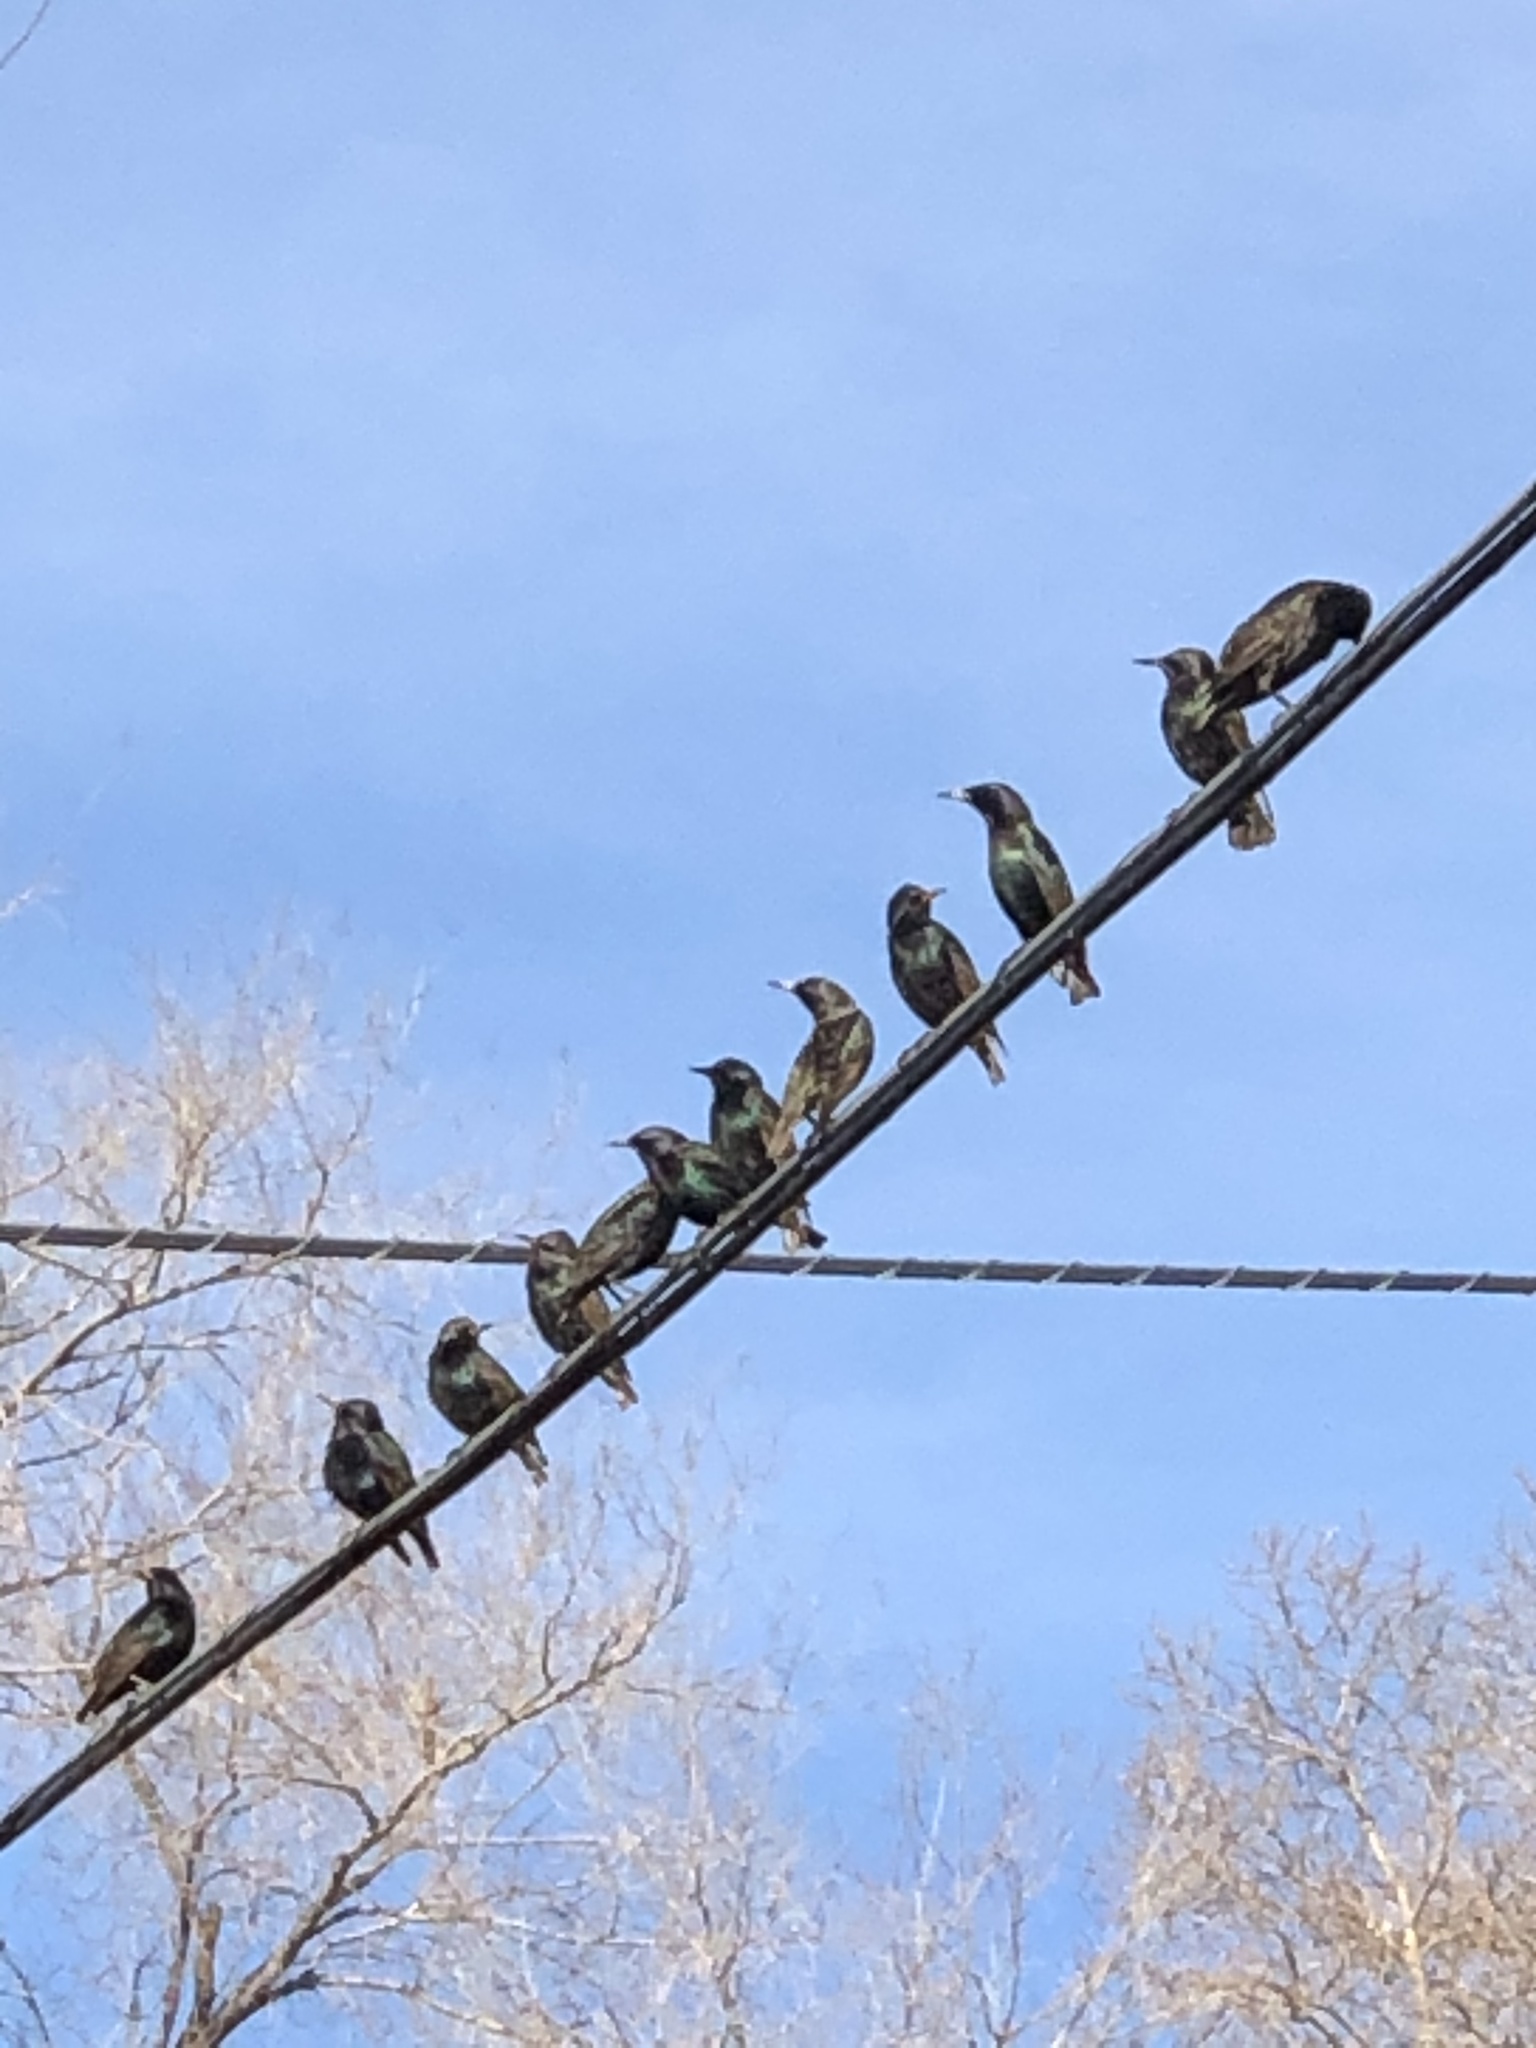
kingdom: Animalia
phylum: Chordata
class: Aves
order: Passeriformes
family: Sturnidae
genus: Sturnus
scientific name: Sturnus vulgaris
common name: Common starling
